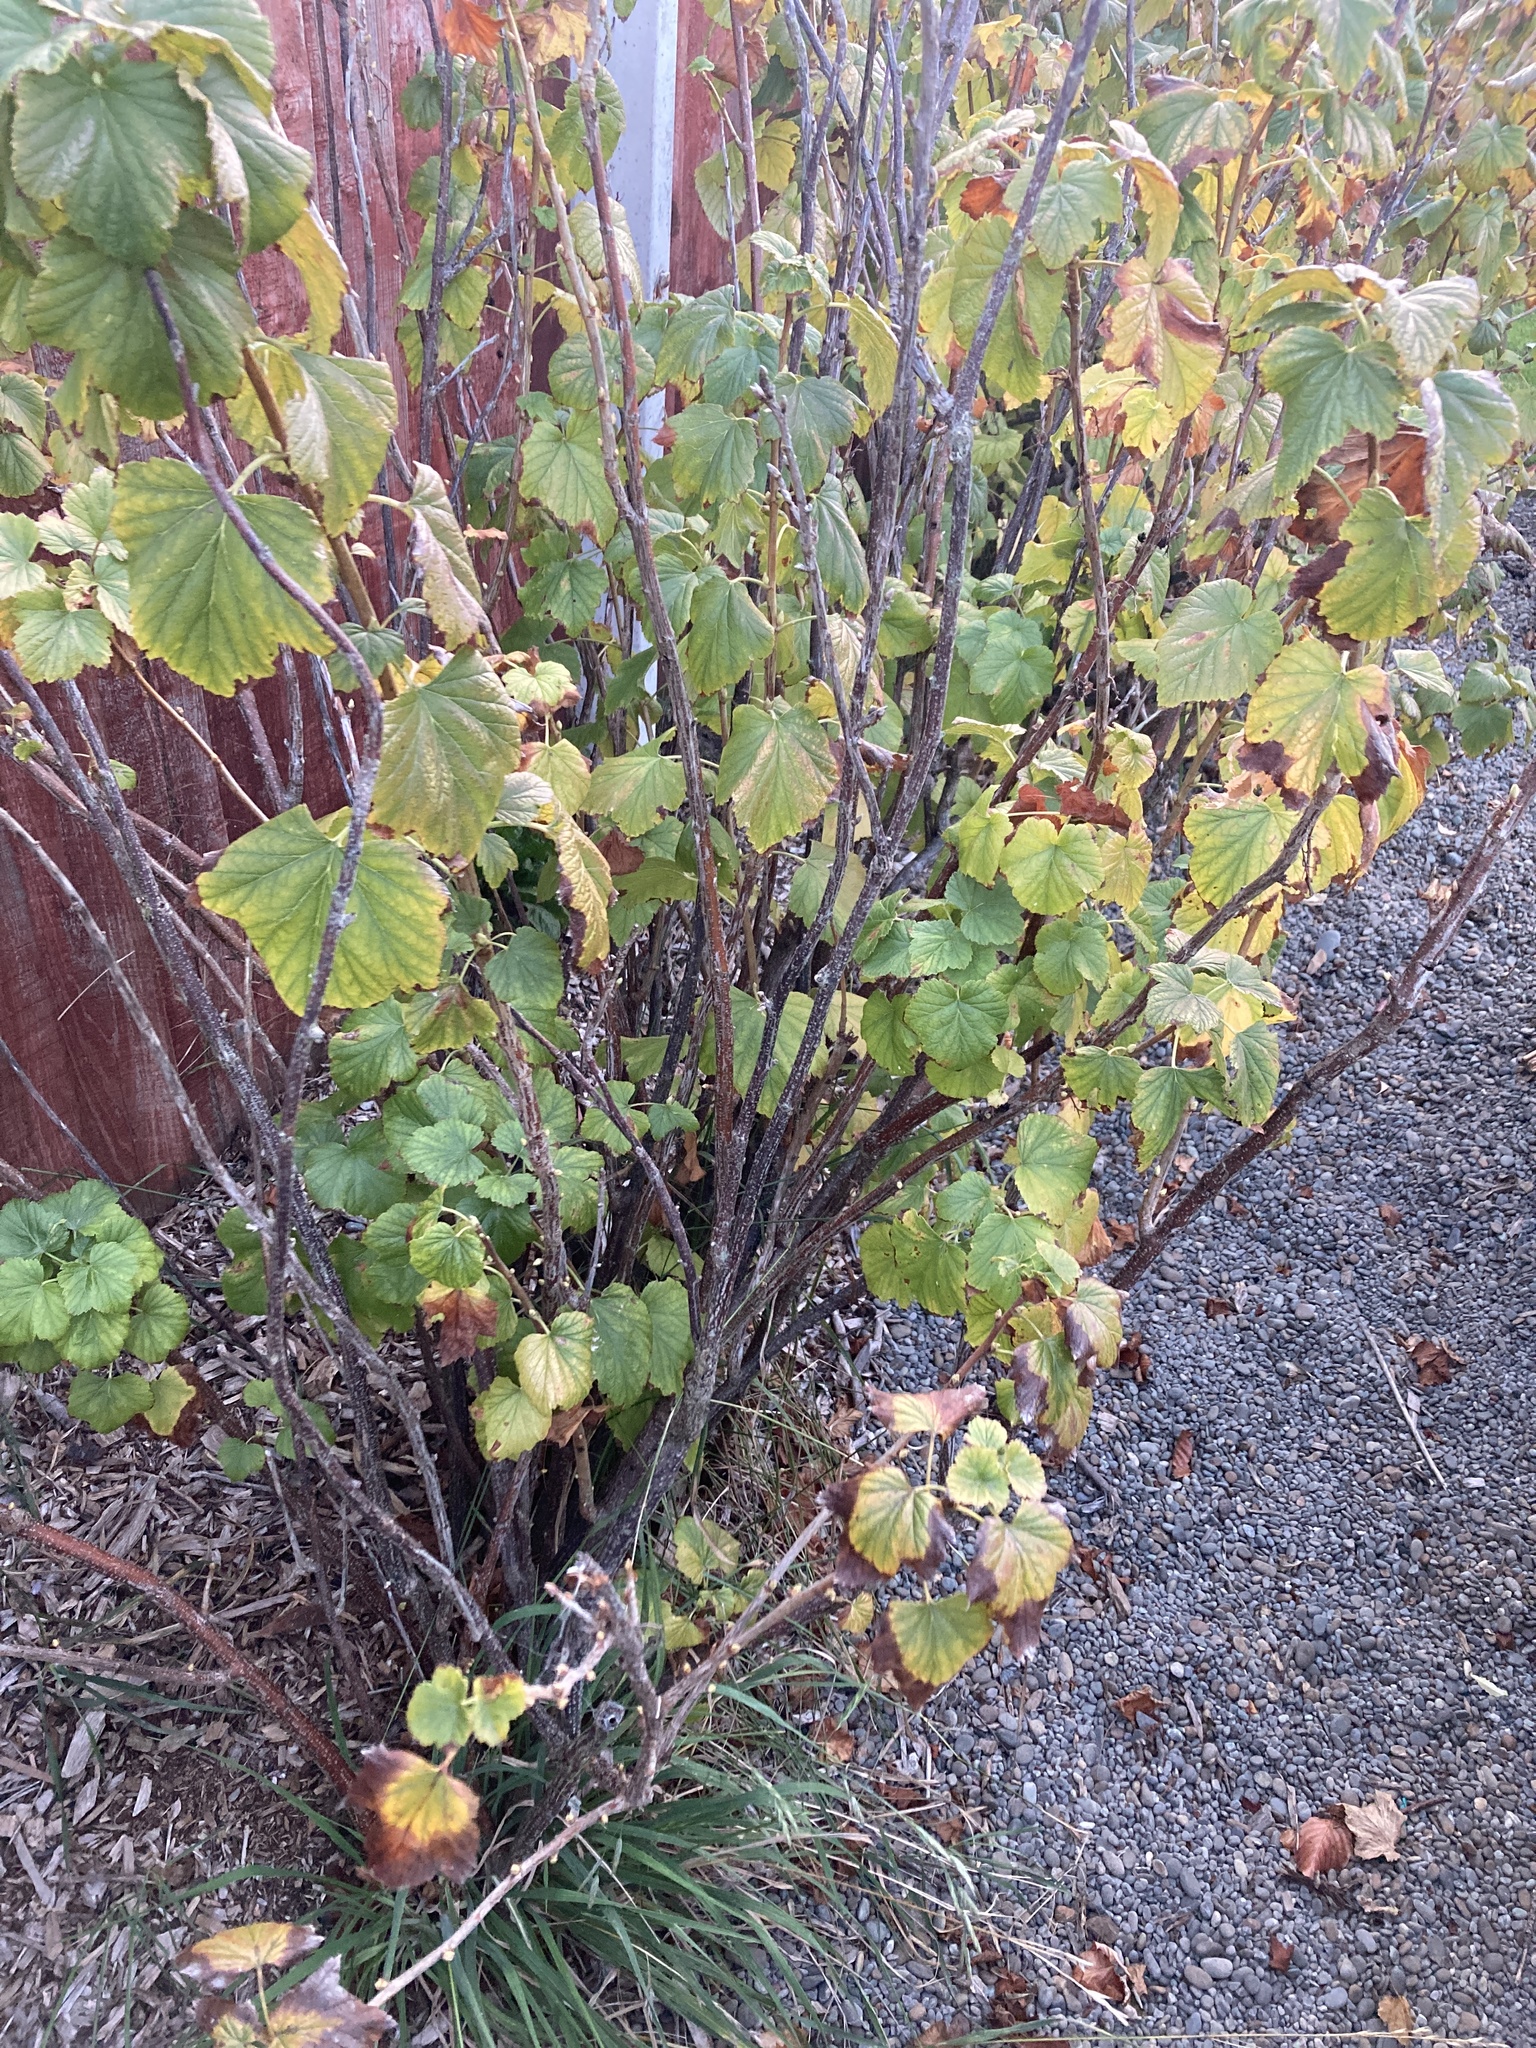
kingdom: Plantae
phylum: Tracheophyta
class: Magnoliopsida
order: Saxifragales
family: Grossulariaceae
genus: Ribes
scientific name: Ribes nigrum
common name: Black currant
